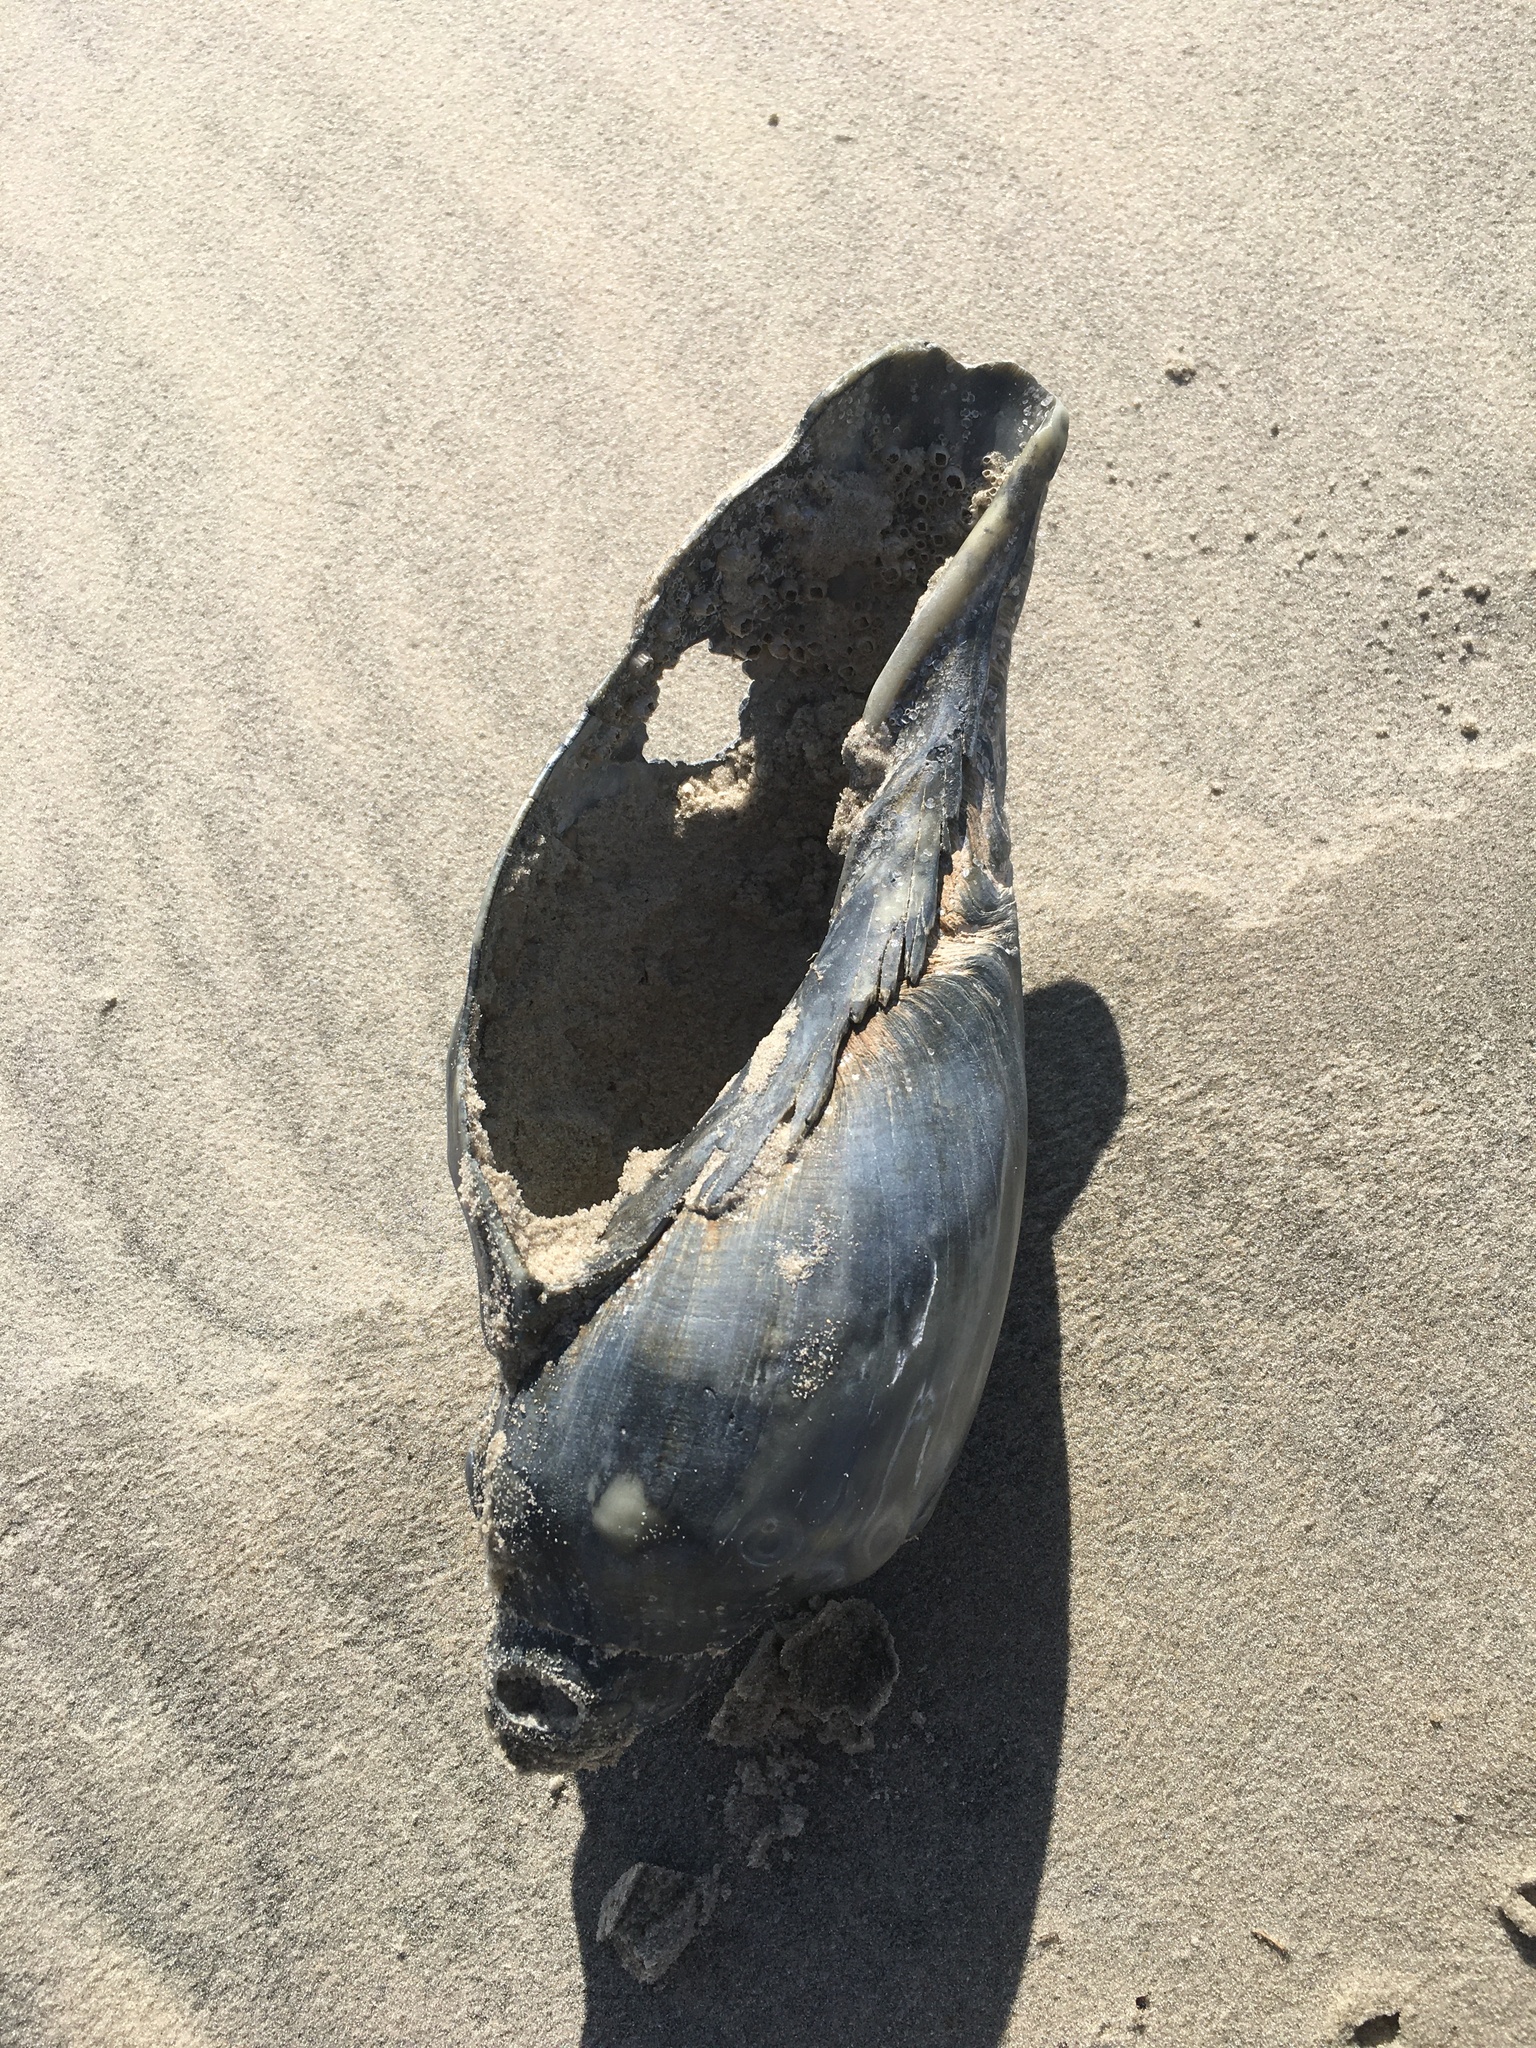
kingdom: Animalia
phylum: Mollusca
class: Gastropoda
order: Neogastropoda
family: Volutidae
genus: Adelomelon
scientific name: Adelomelon beckii
